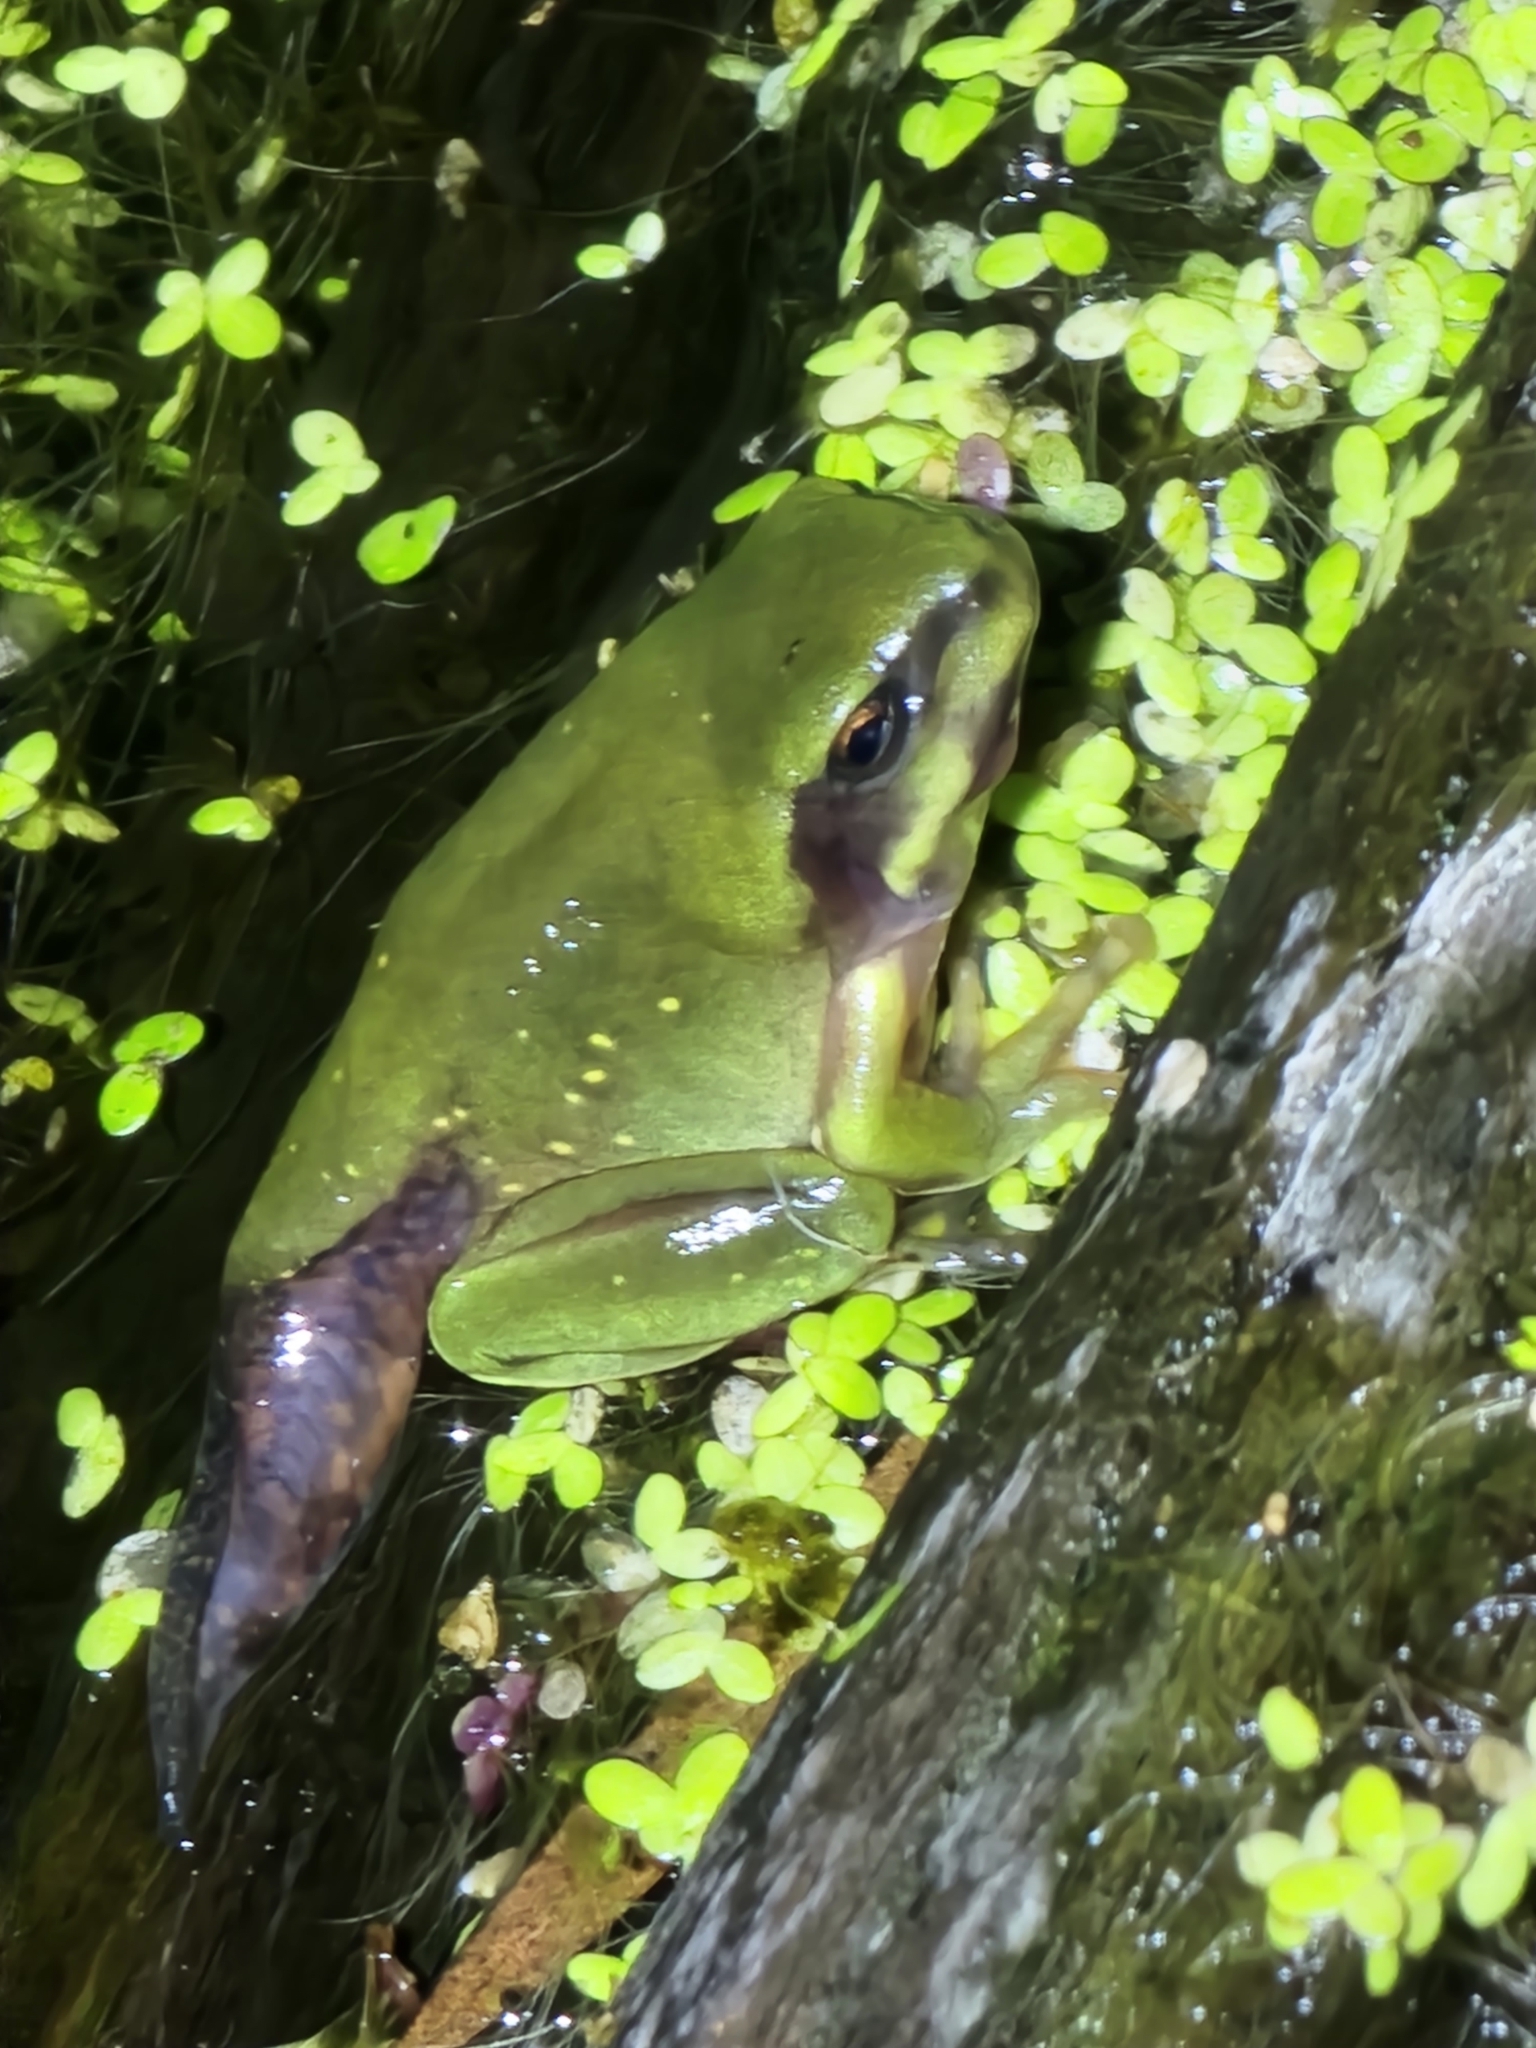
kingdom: Animalia
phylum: Chordata
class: Amphibia
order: Anura
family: Pelodryadidae
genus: Ranoidea
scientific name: Ranoidea caerulea
